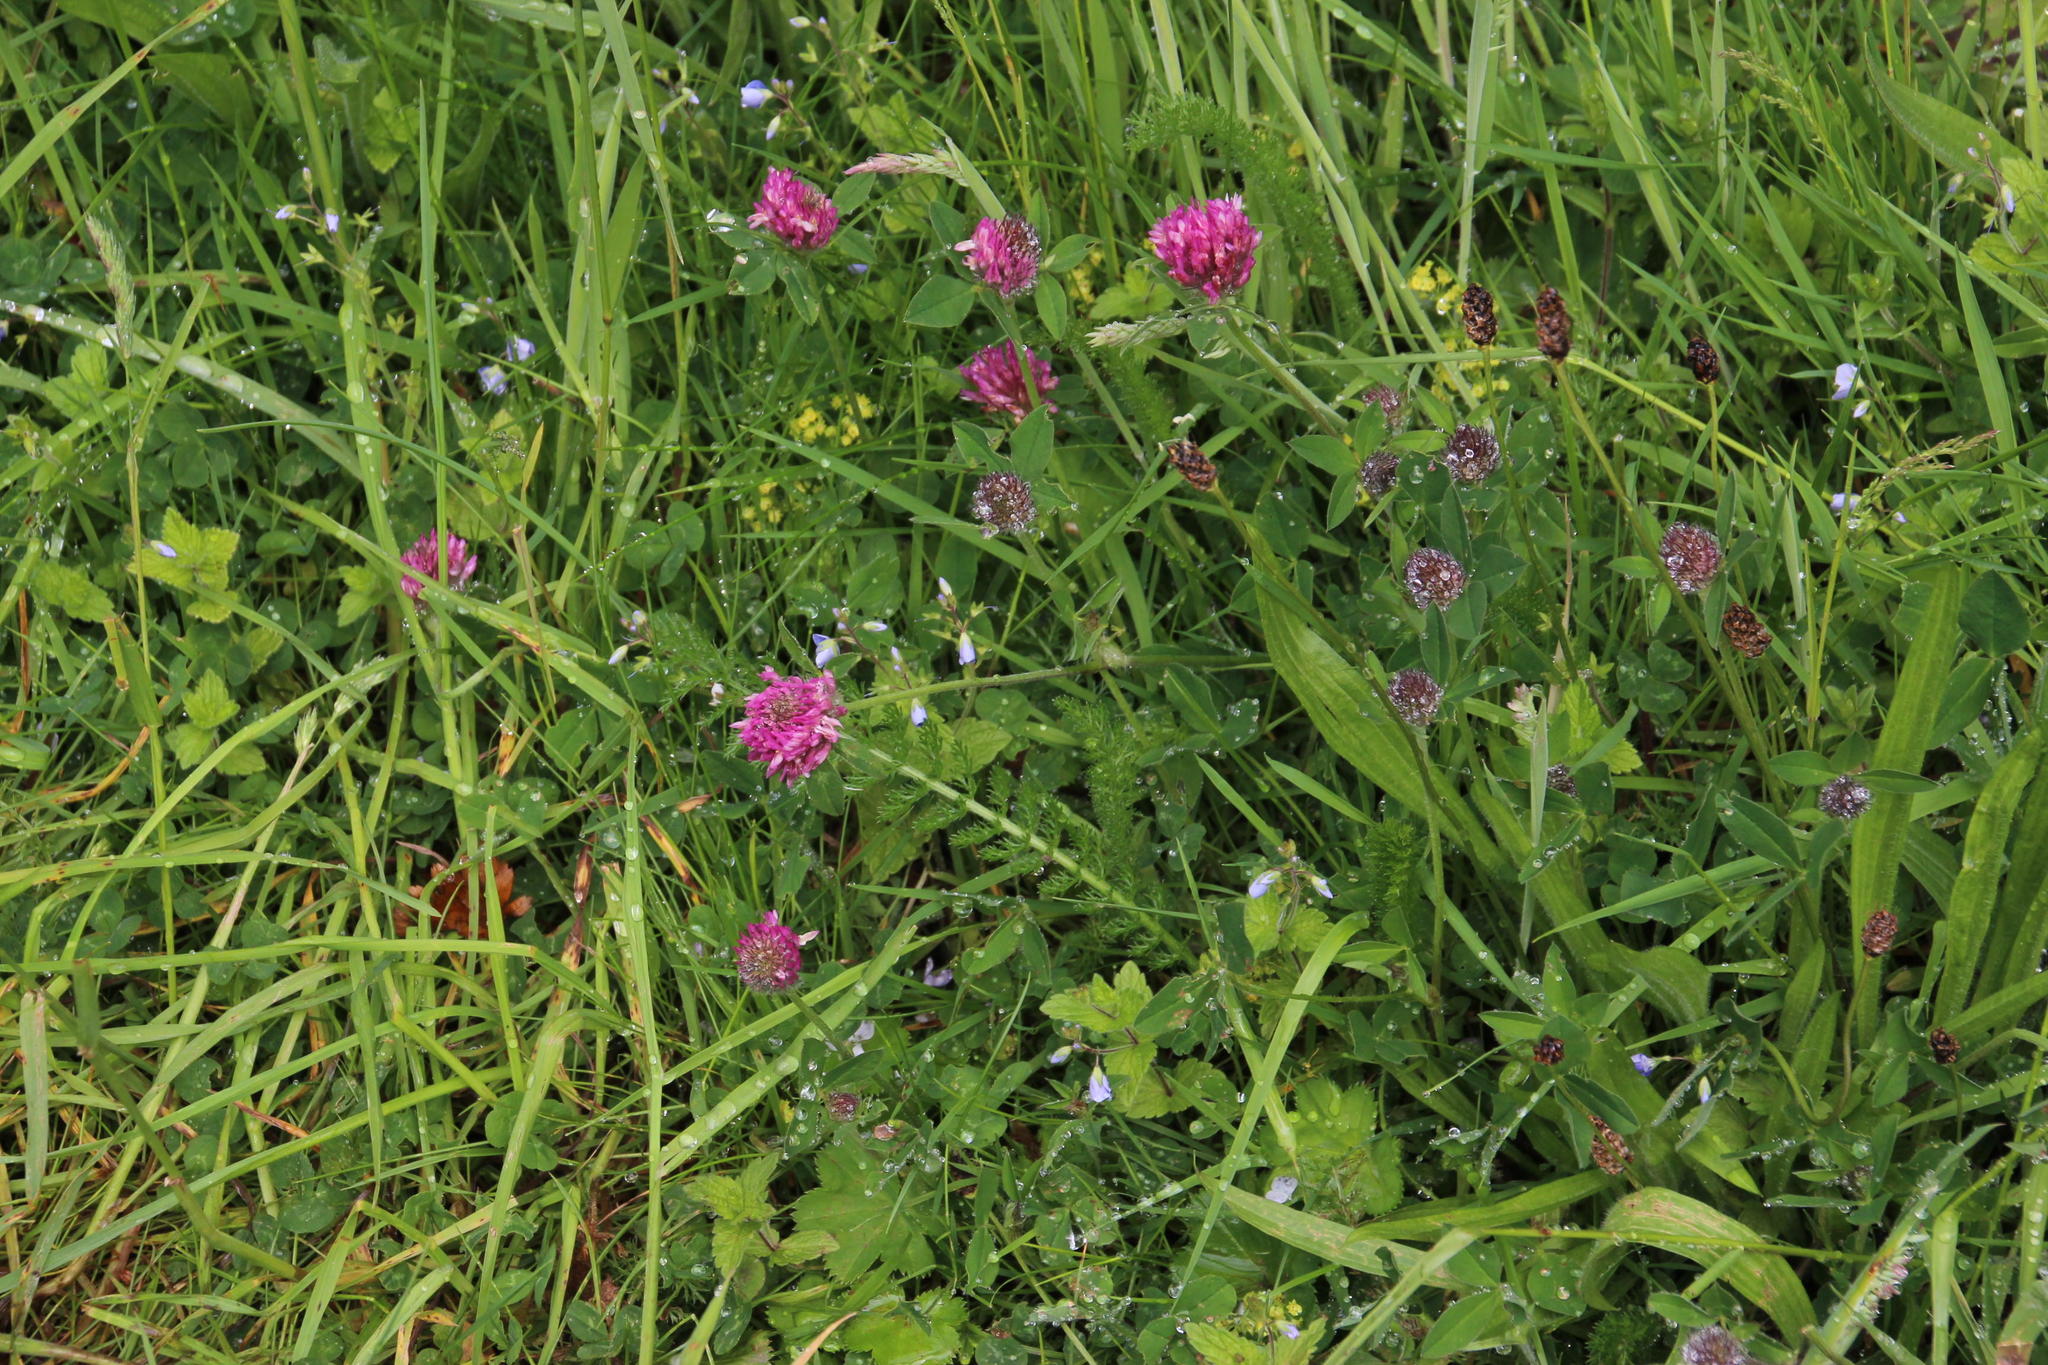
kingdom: Plantae
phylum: Tracheophyta
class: Magnoliopsida
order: Fabales
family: Fabaceae
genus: Trifolium
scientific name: Trifolium pratense
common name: Red clover
